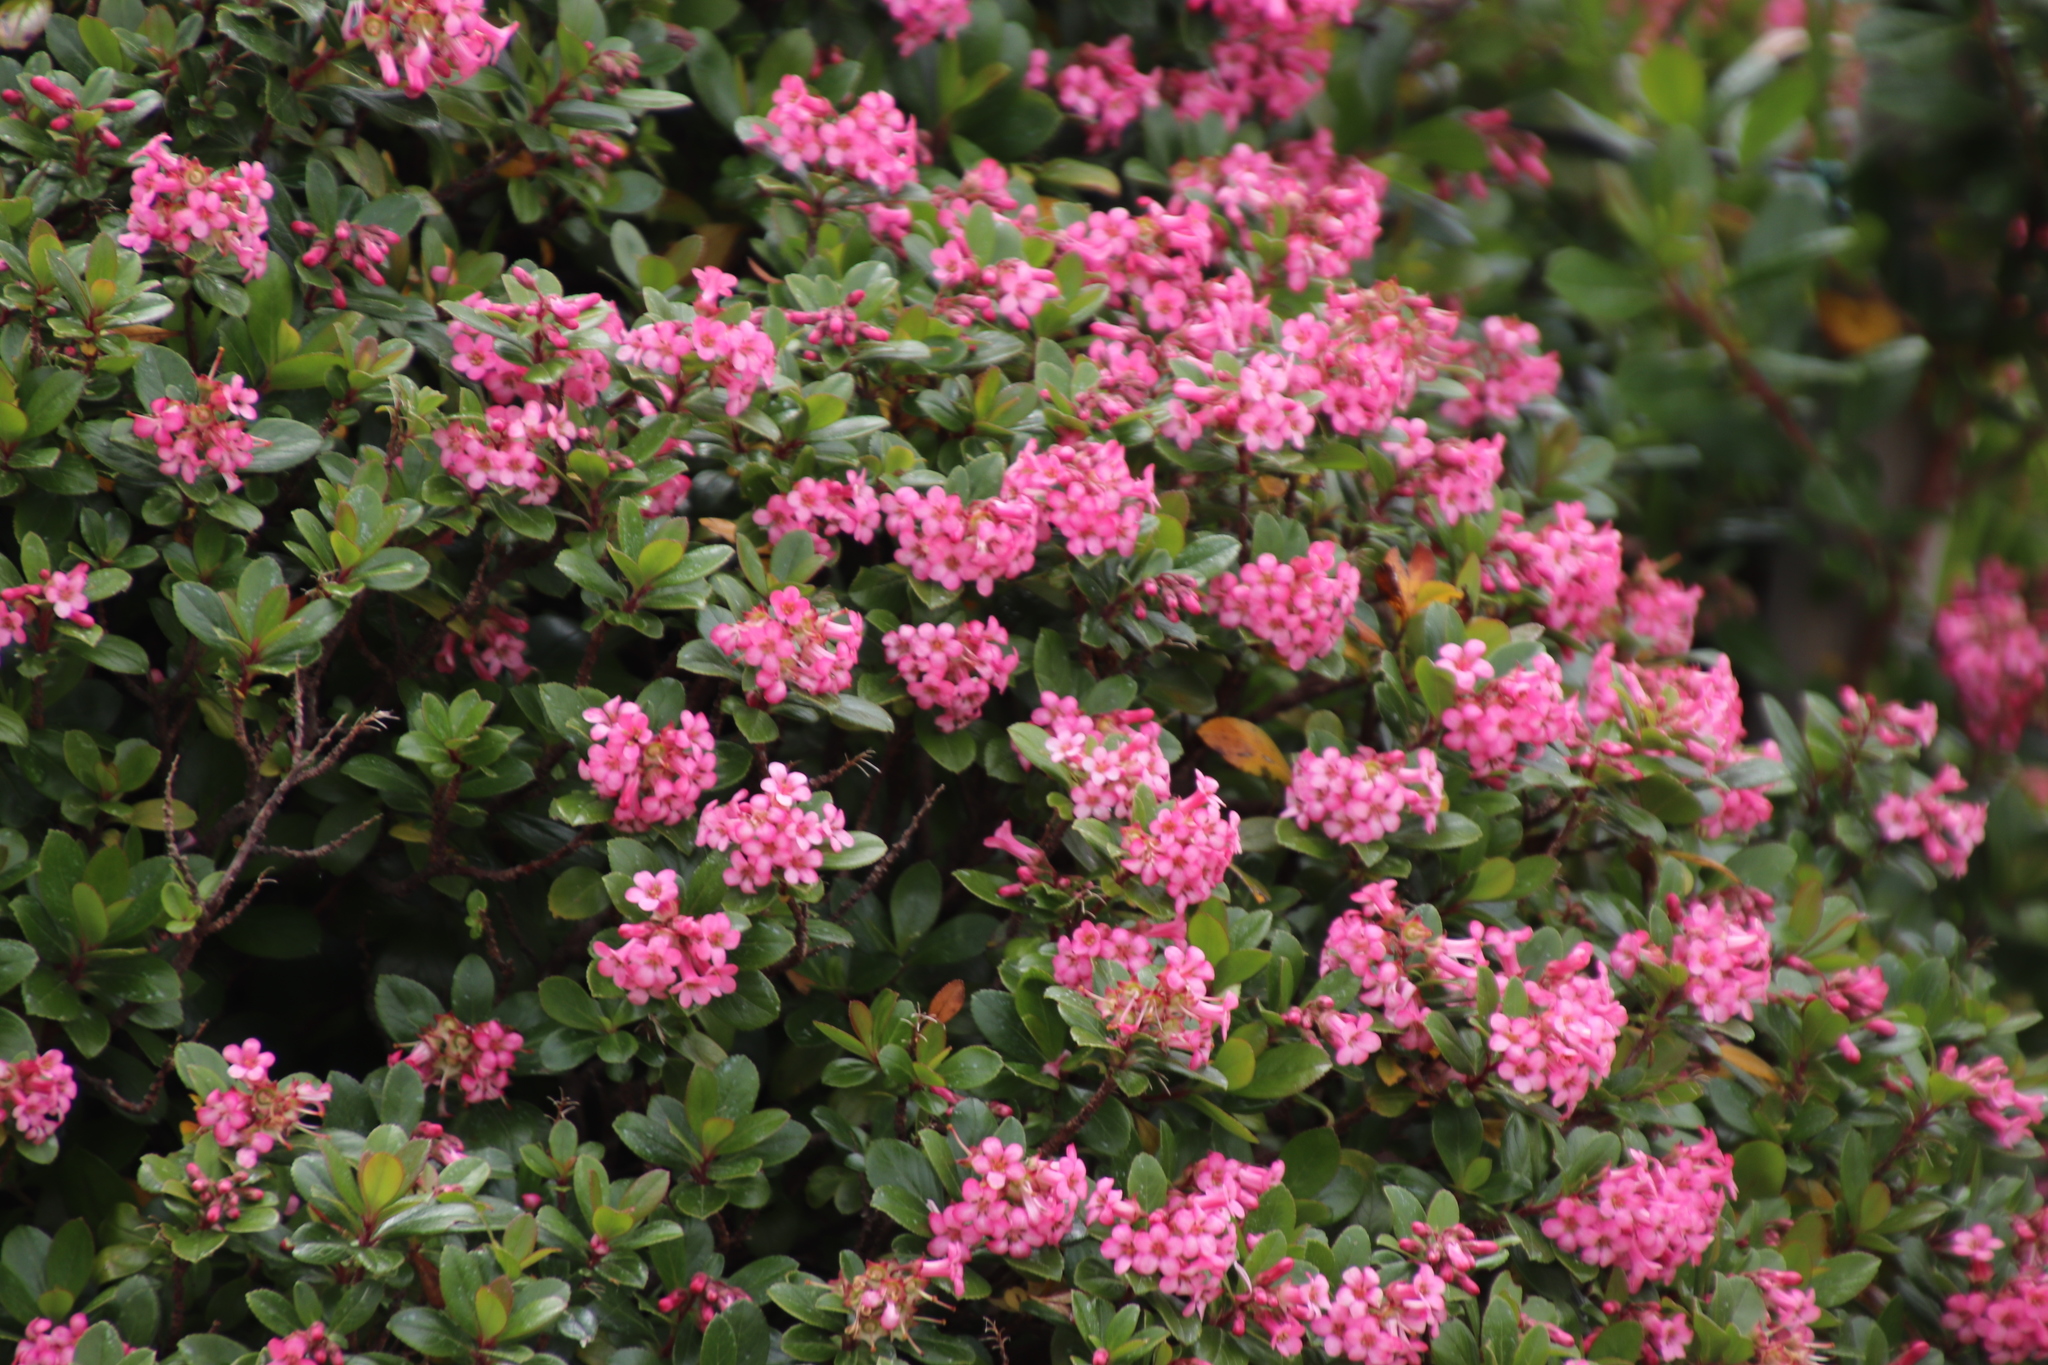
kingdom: Plantae
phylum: Tracheophyta
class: Magnoliopsida
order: Escalloniales
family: Escalloniaceae
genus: Escallonia
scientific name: Escallonia rubra
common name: Redclaws
